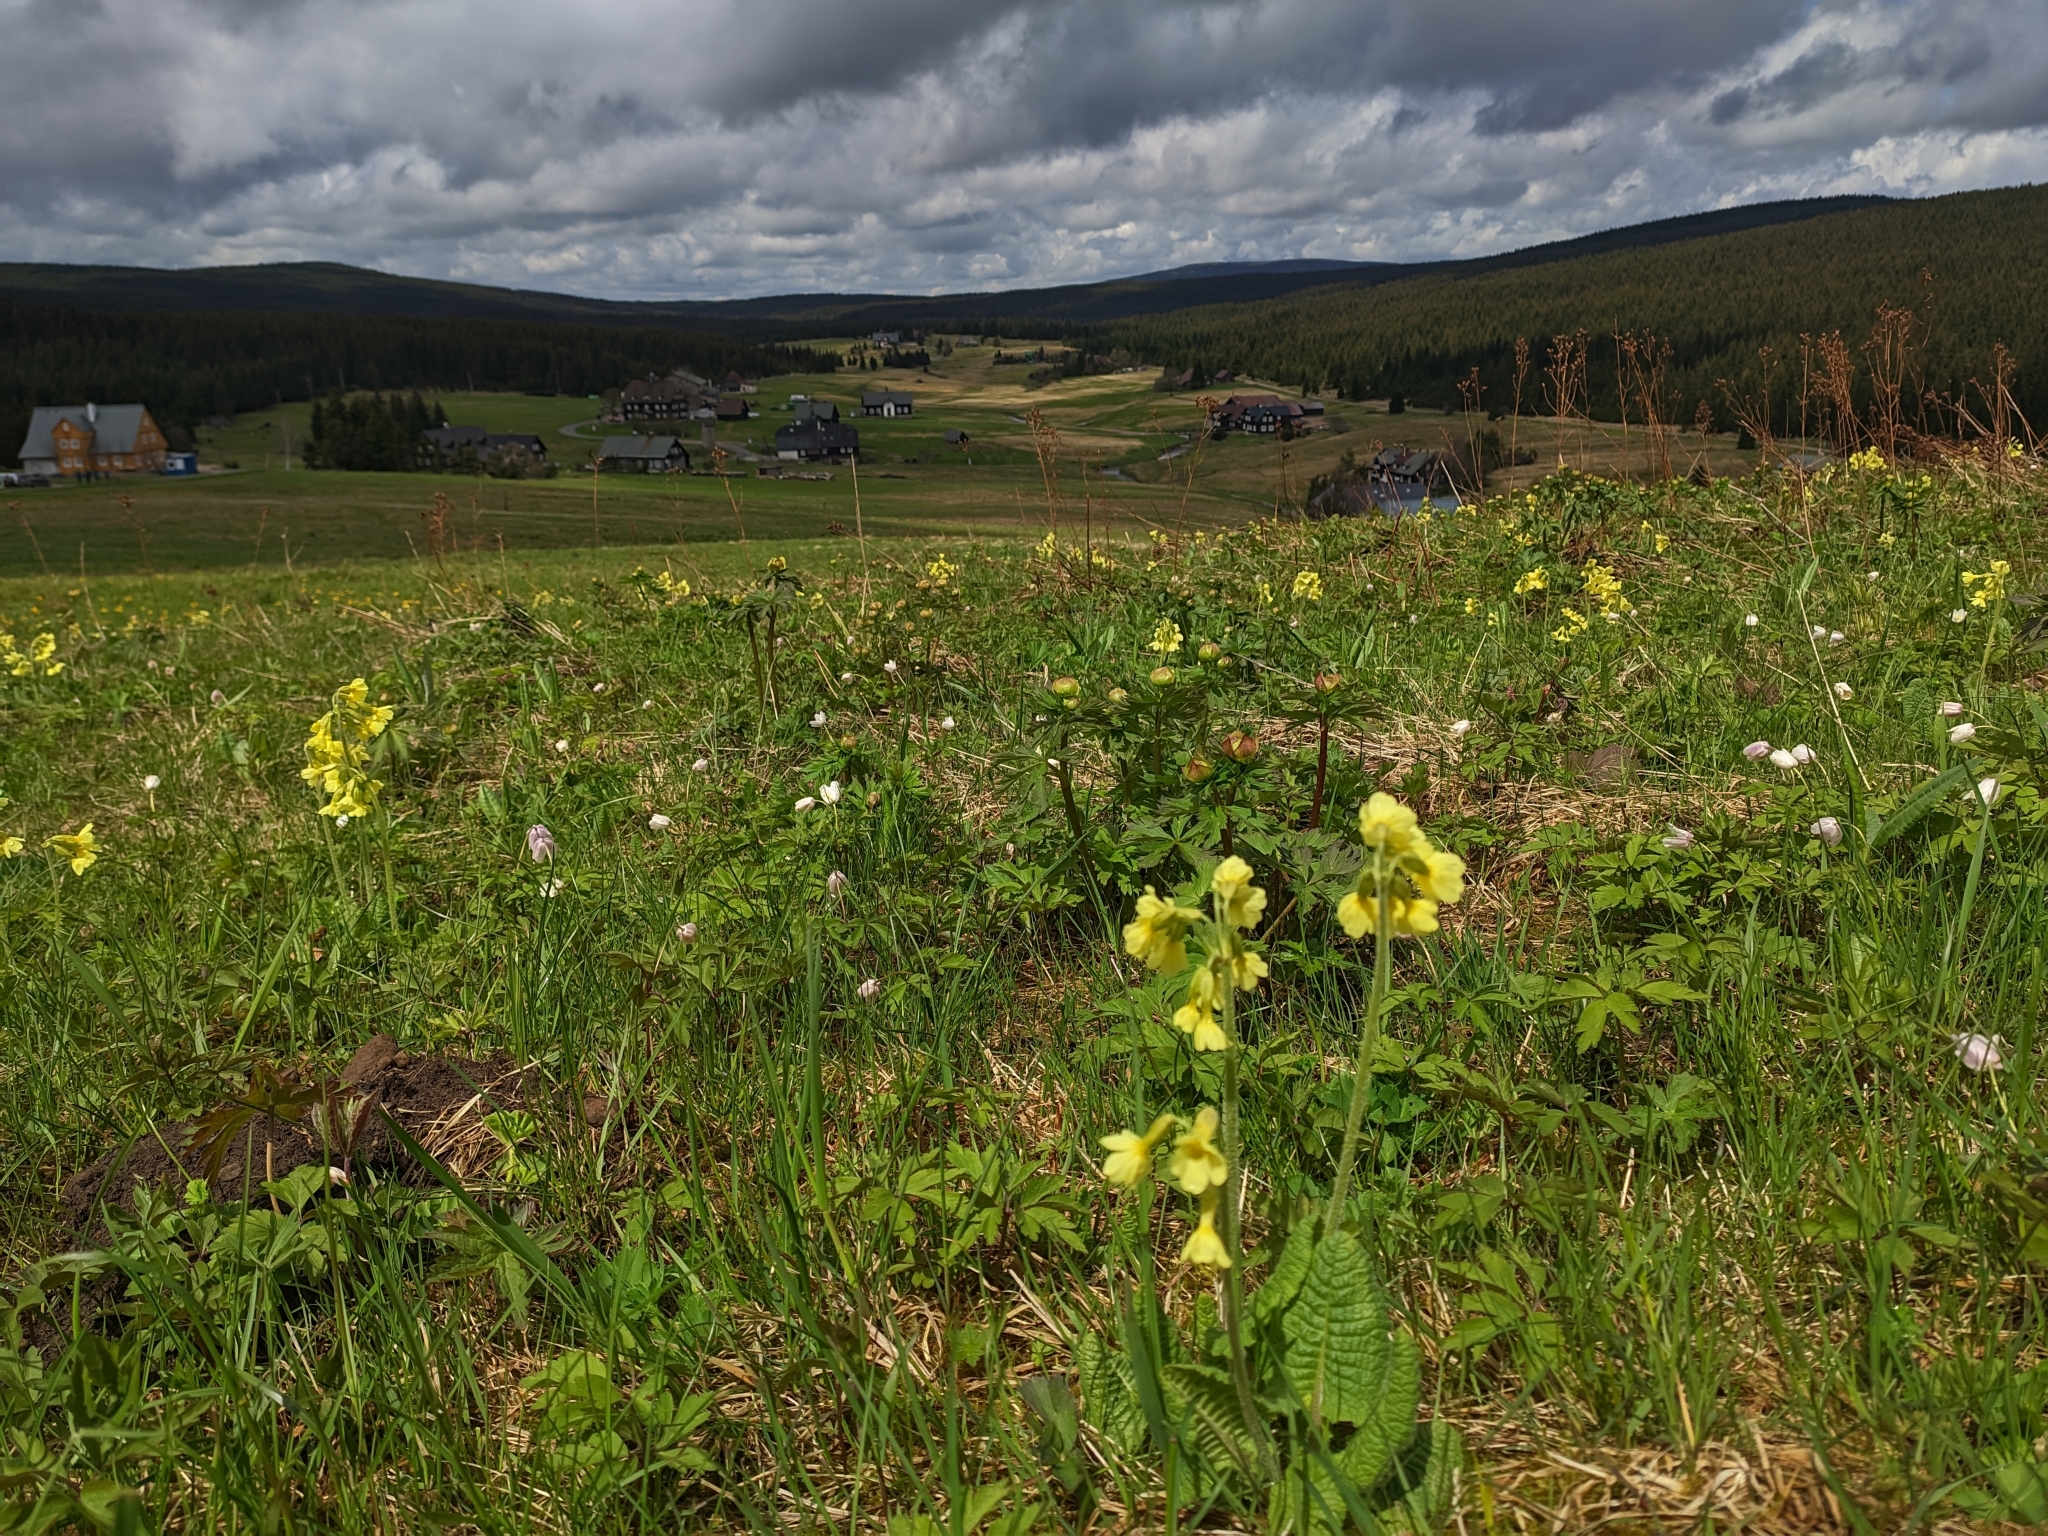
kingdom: Plantae
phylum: Tracheophyta
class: Magnoliopsida
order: Ericales
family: Primulaceae
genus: Primula
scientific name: Primula elatior
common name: Oxlip
